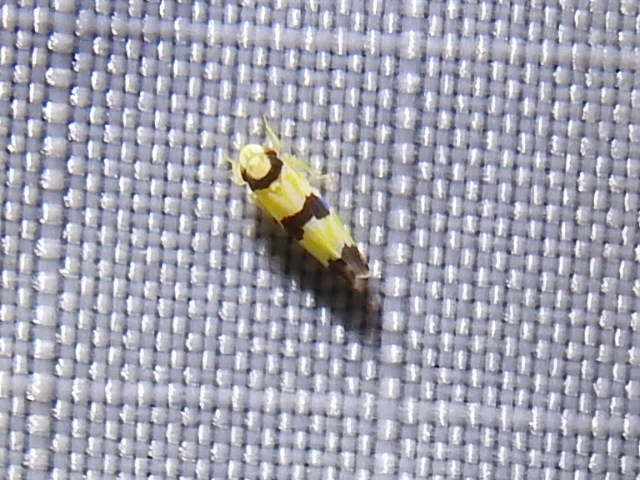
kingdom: Animalia
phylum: Arthropoda
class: Insecta
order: Hemiptera
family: Cicadellidae
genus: Erythroneura
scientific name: Erythroneura calycula
